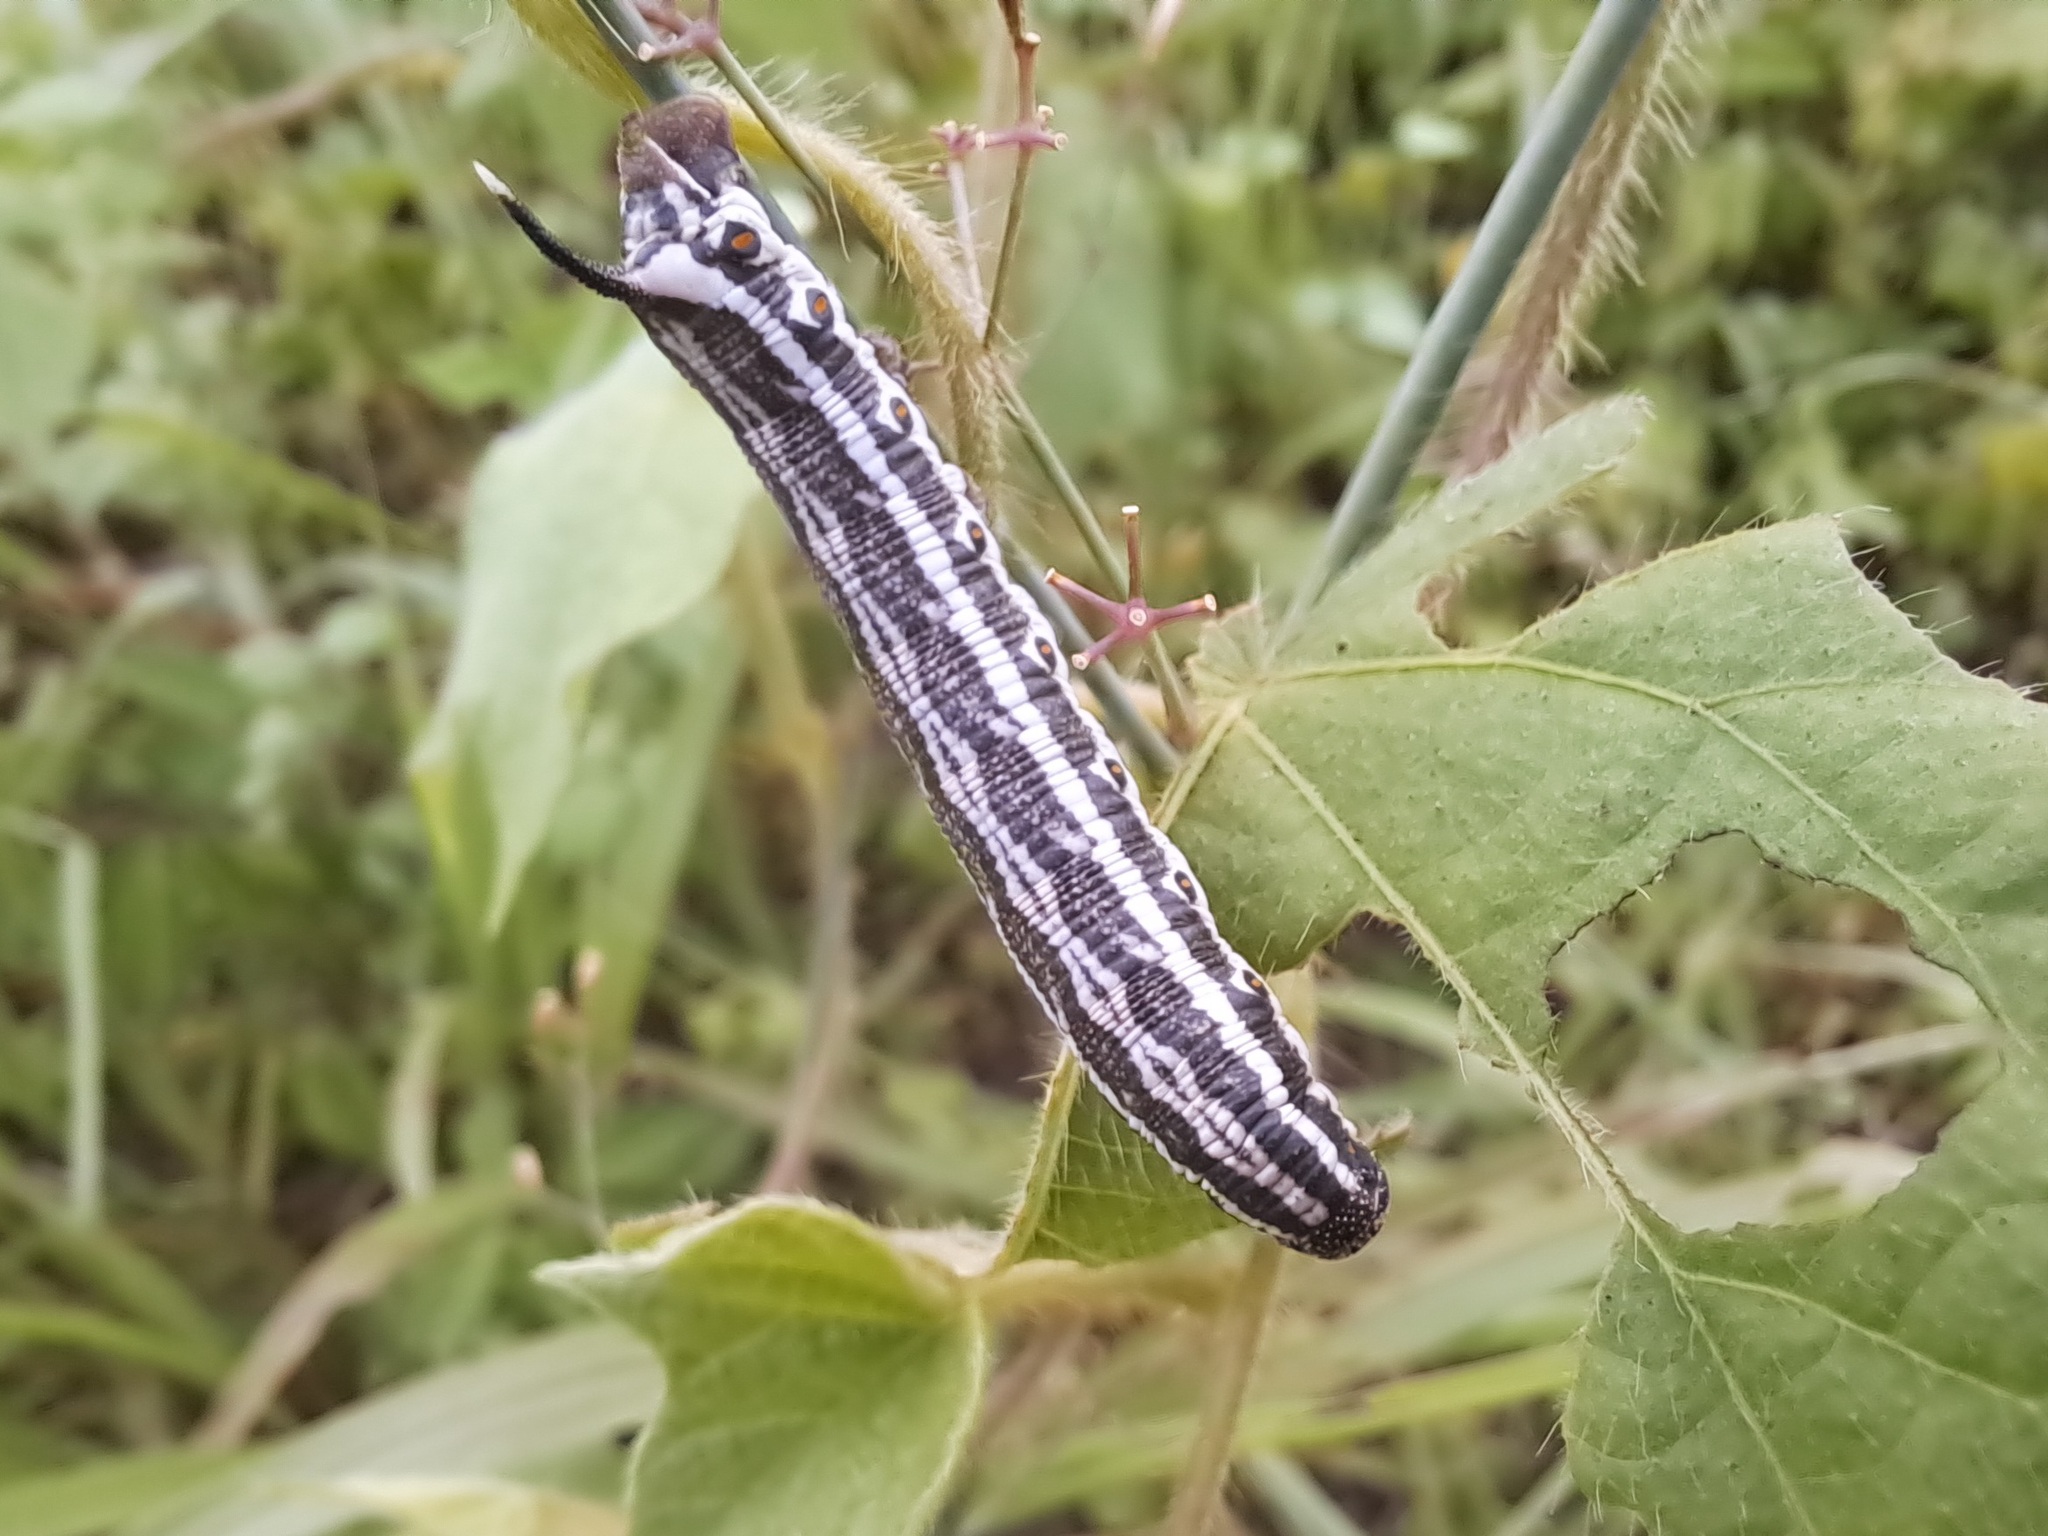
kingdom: Animalia
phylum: Arthropoda
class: Insecta
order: Lepidoptera
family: Sphingidae
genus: Agrius
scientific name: Agrius cingulata
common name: Pink-spotted hawkmoth
